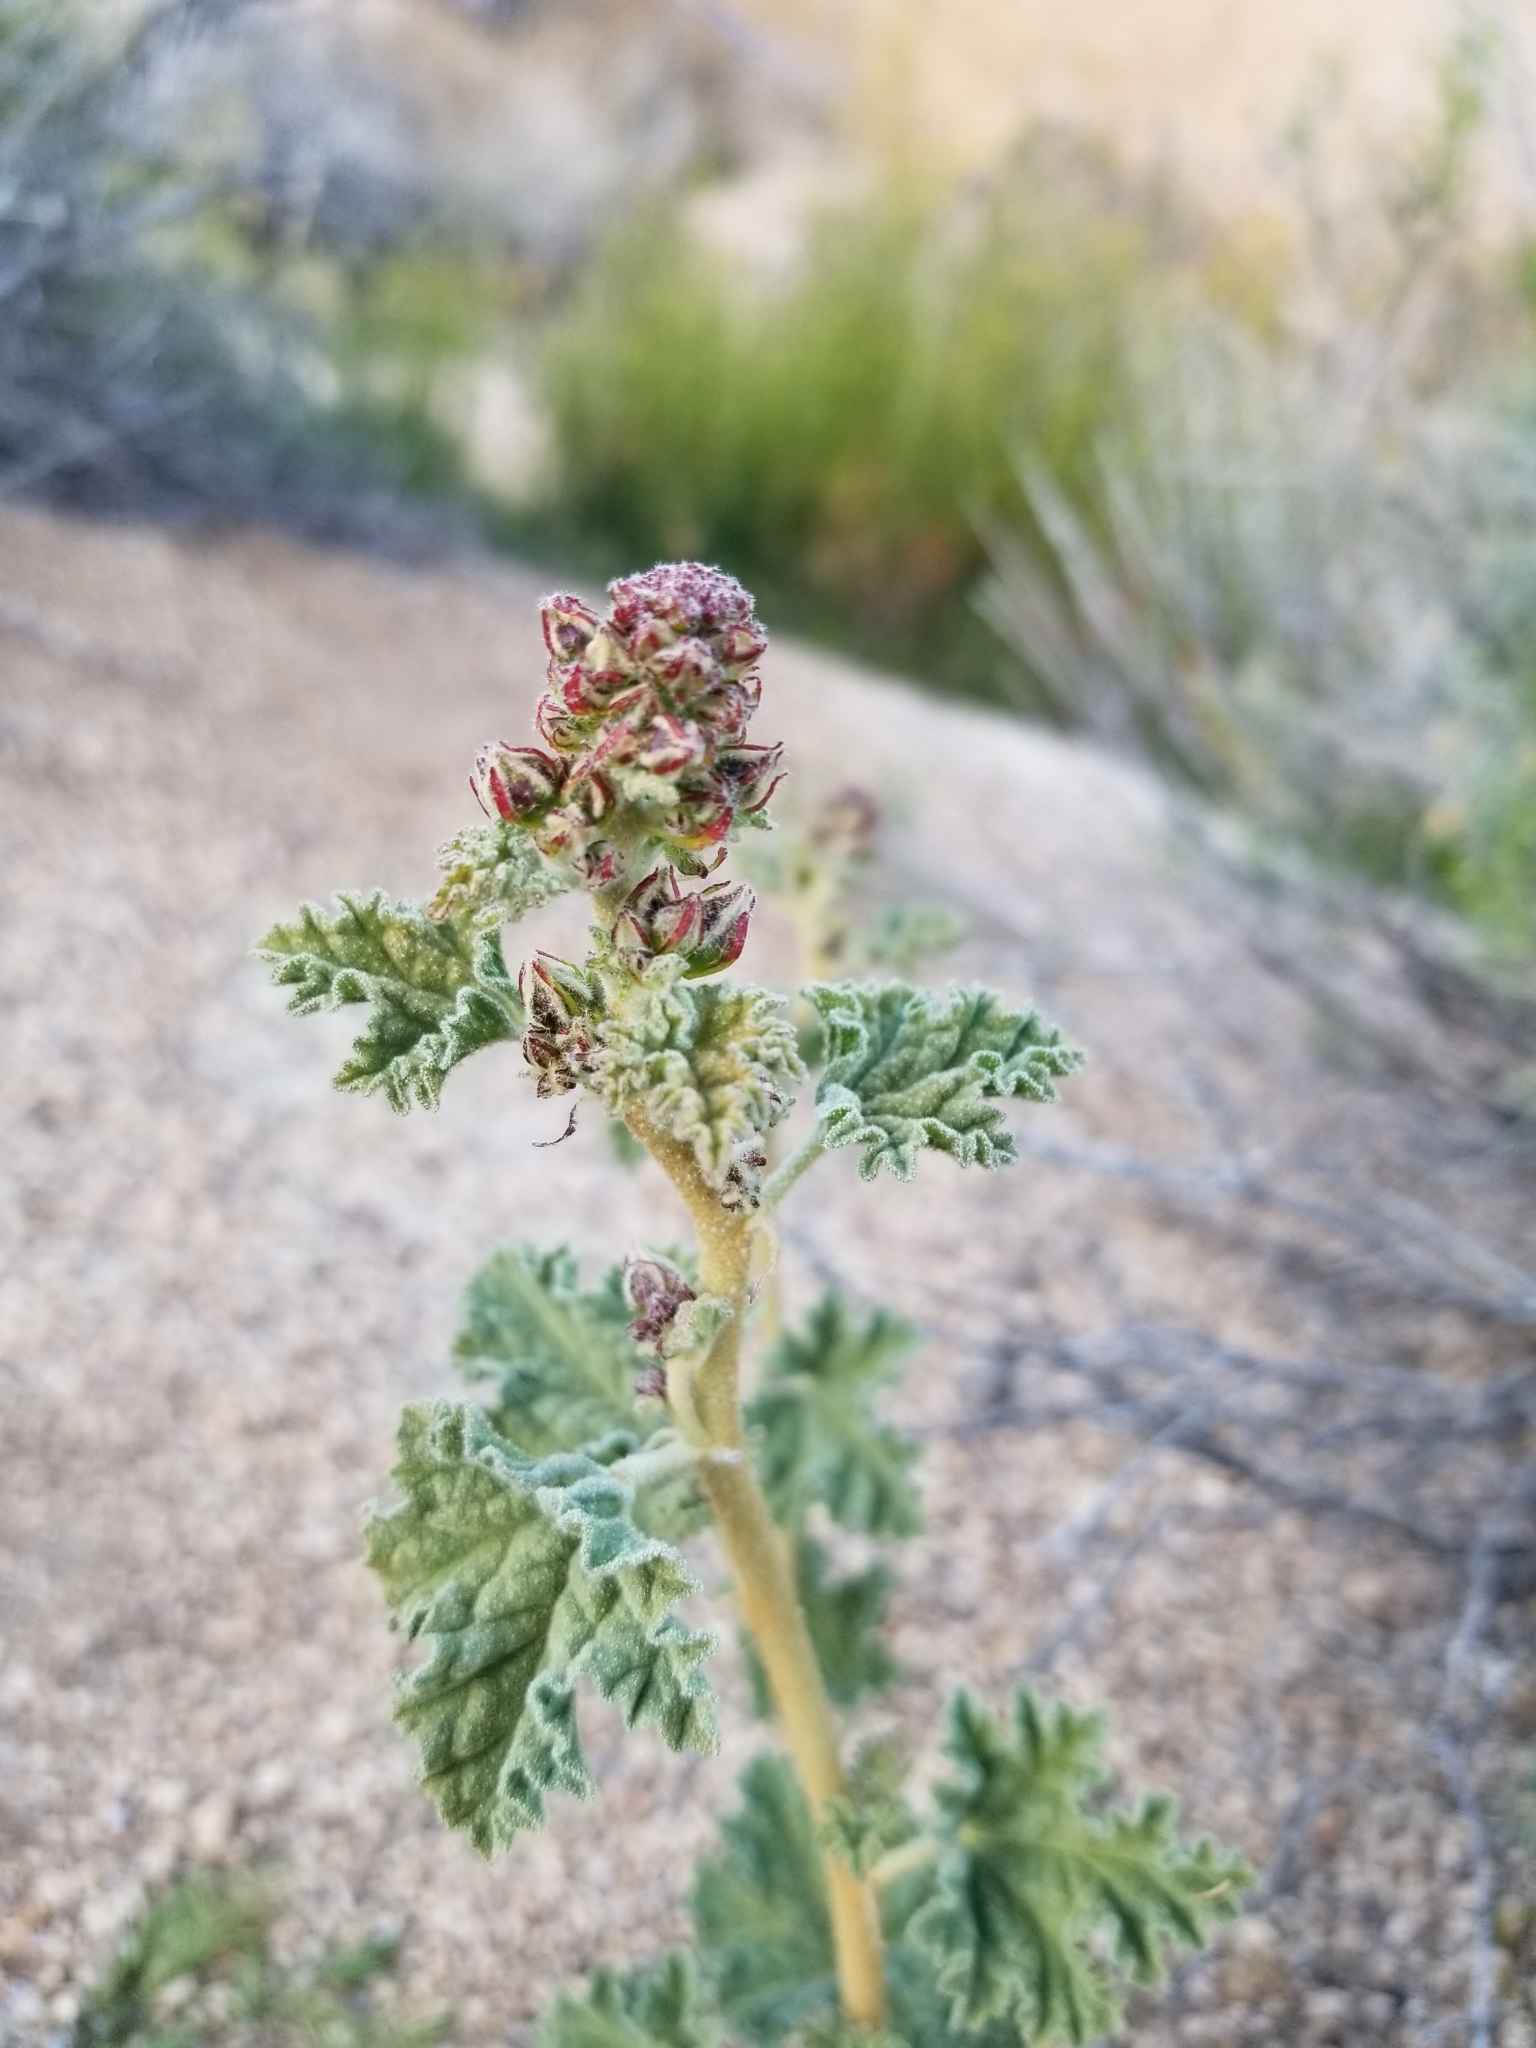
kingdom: Plantae
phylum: Tracheophyta
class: Magnoliopsida
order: Malvales
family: Malvaceae
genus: Sphaeralcea
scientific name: Sphaeralcea ambigua
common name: Apricot globe-mallow
